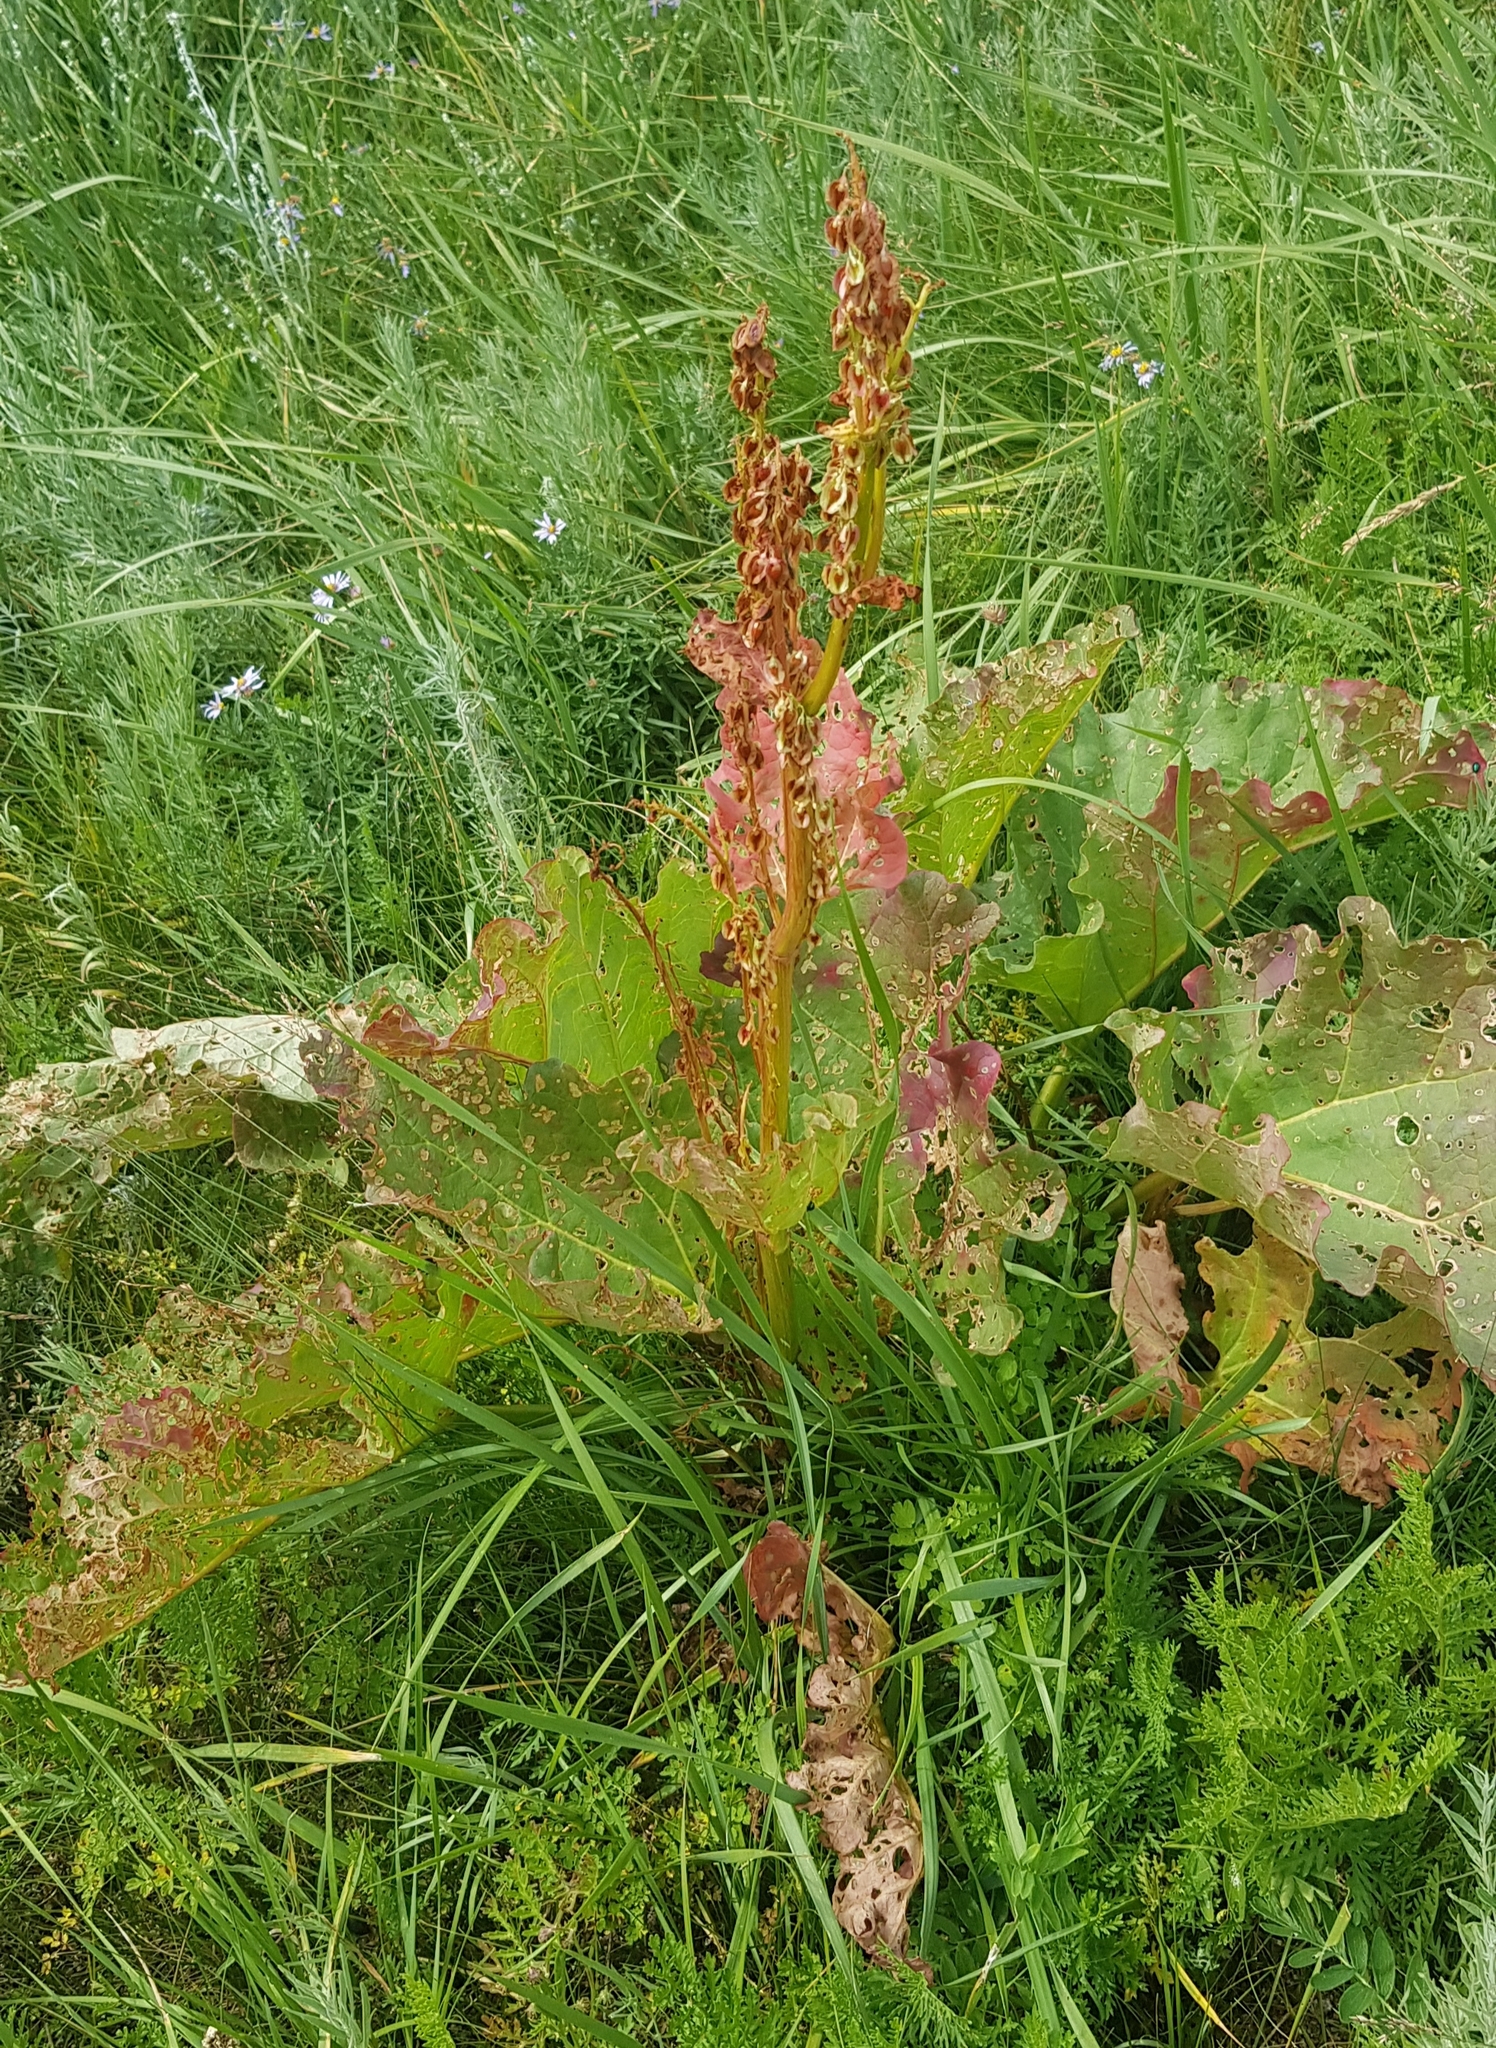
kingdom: Plantae
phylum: Tracheophyta
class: Magnoliopsida
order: Caryophyllales
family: Polygonaceae
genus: Rheum
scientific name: Rheum rhabarbarum
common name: Garden rhubarb
